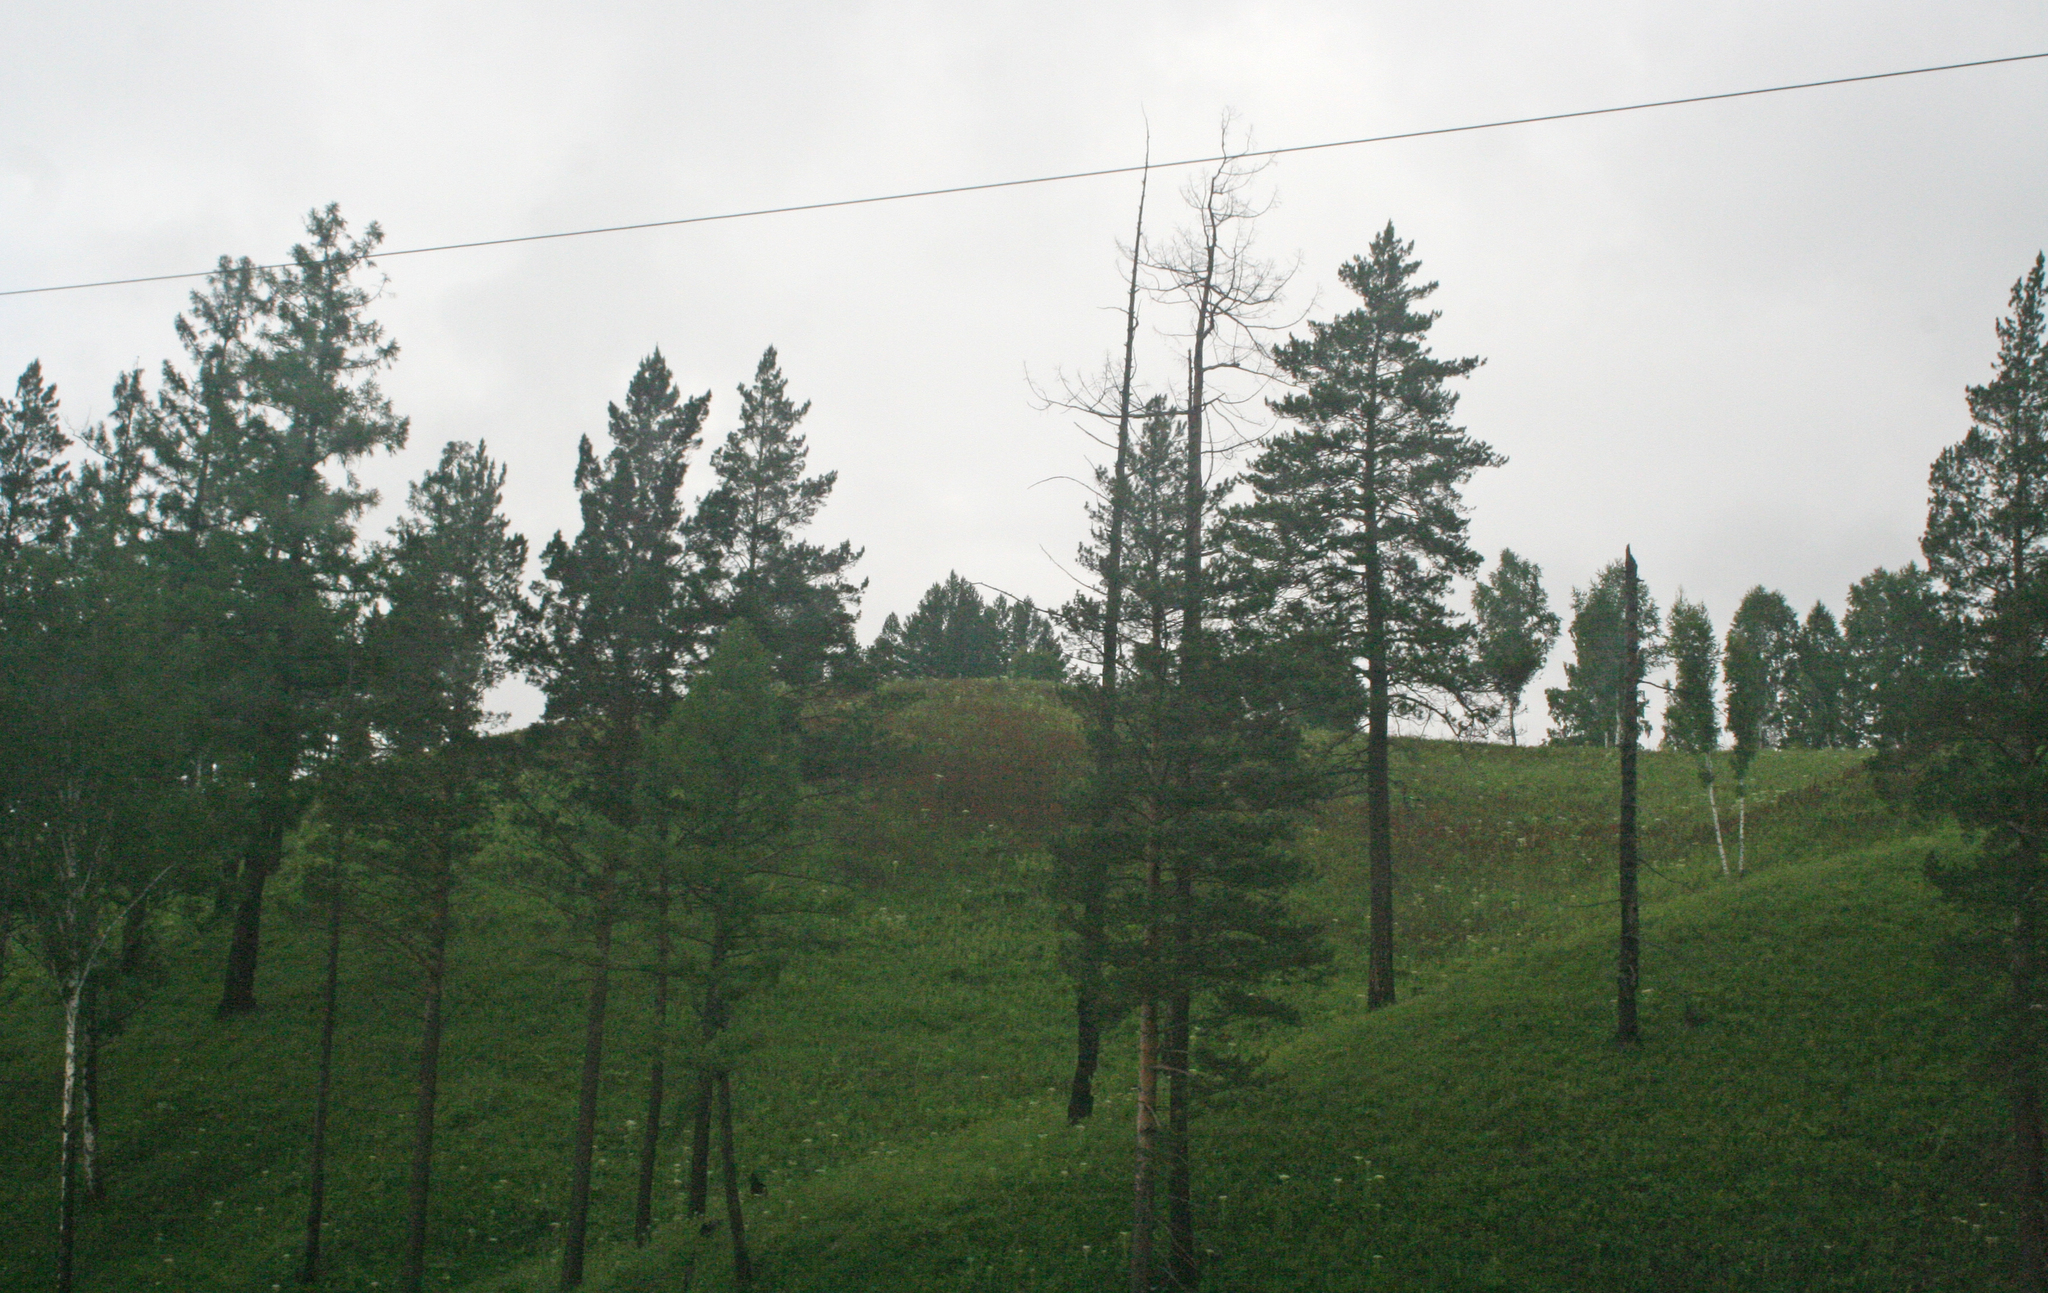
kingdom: Plantae
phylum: Tracheophyta
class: Pinopsida
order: Pinales
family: Pinaceae
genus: Pinus
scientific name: Pinus sylvestris
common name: Scots pine
